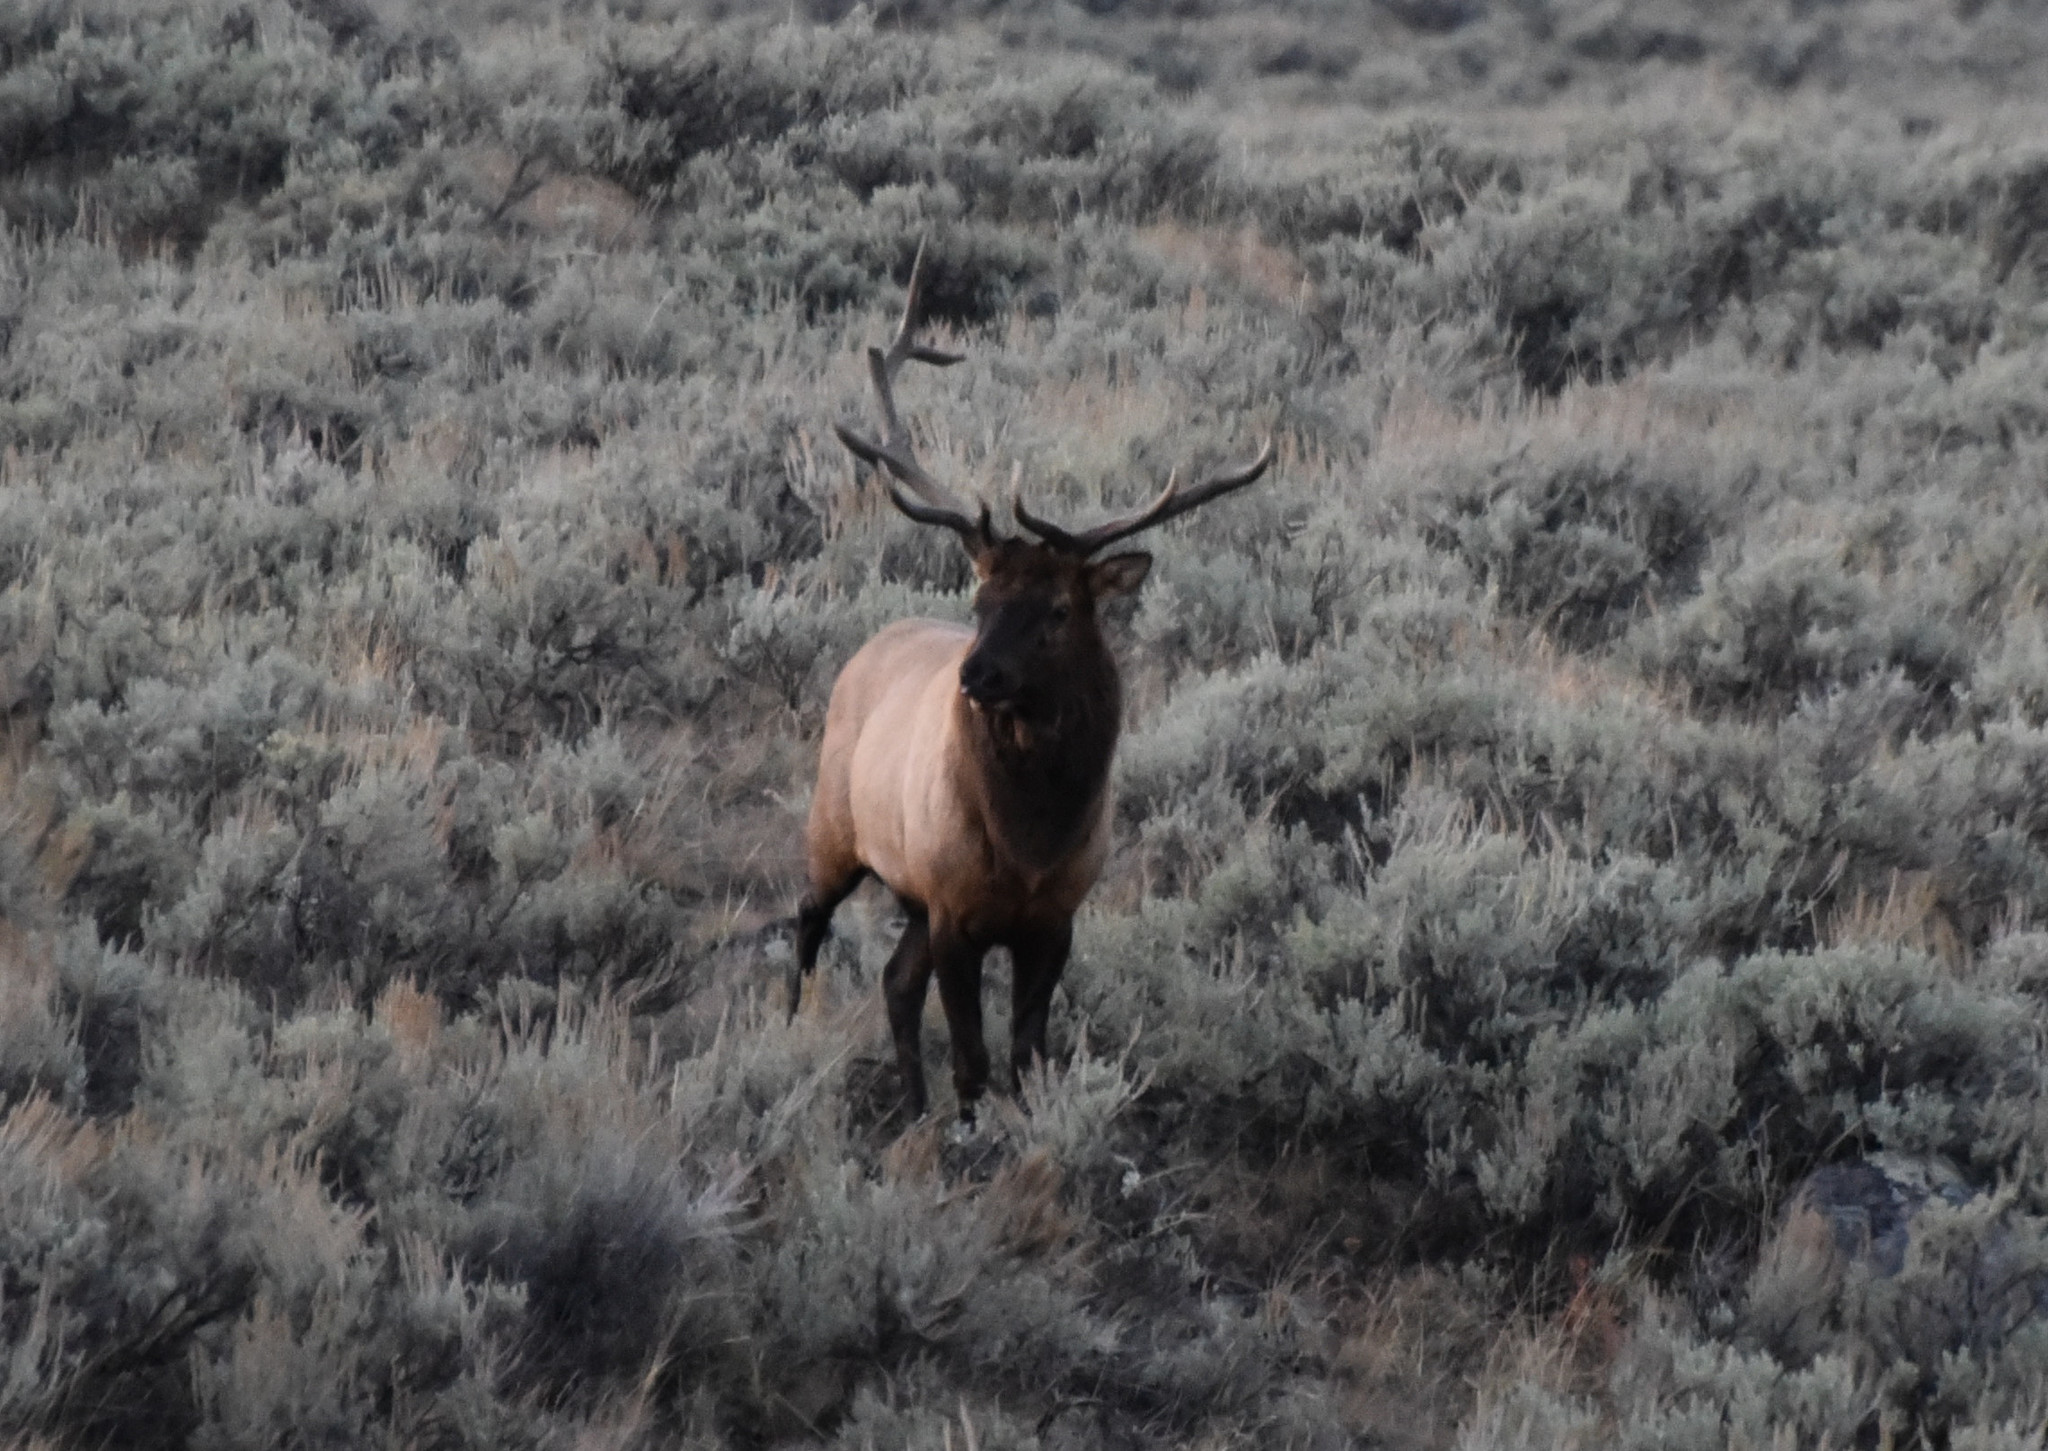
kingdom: Animalia
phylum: Chordata
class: Mammalia
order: Artiodactyla
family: Cervidae
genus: Cervus
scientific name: Cervus elaphus
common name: Red deer
